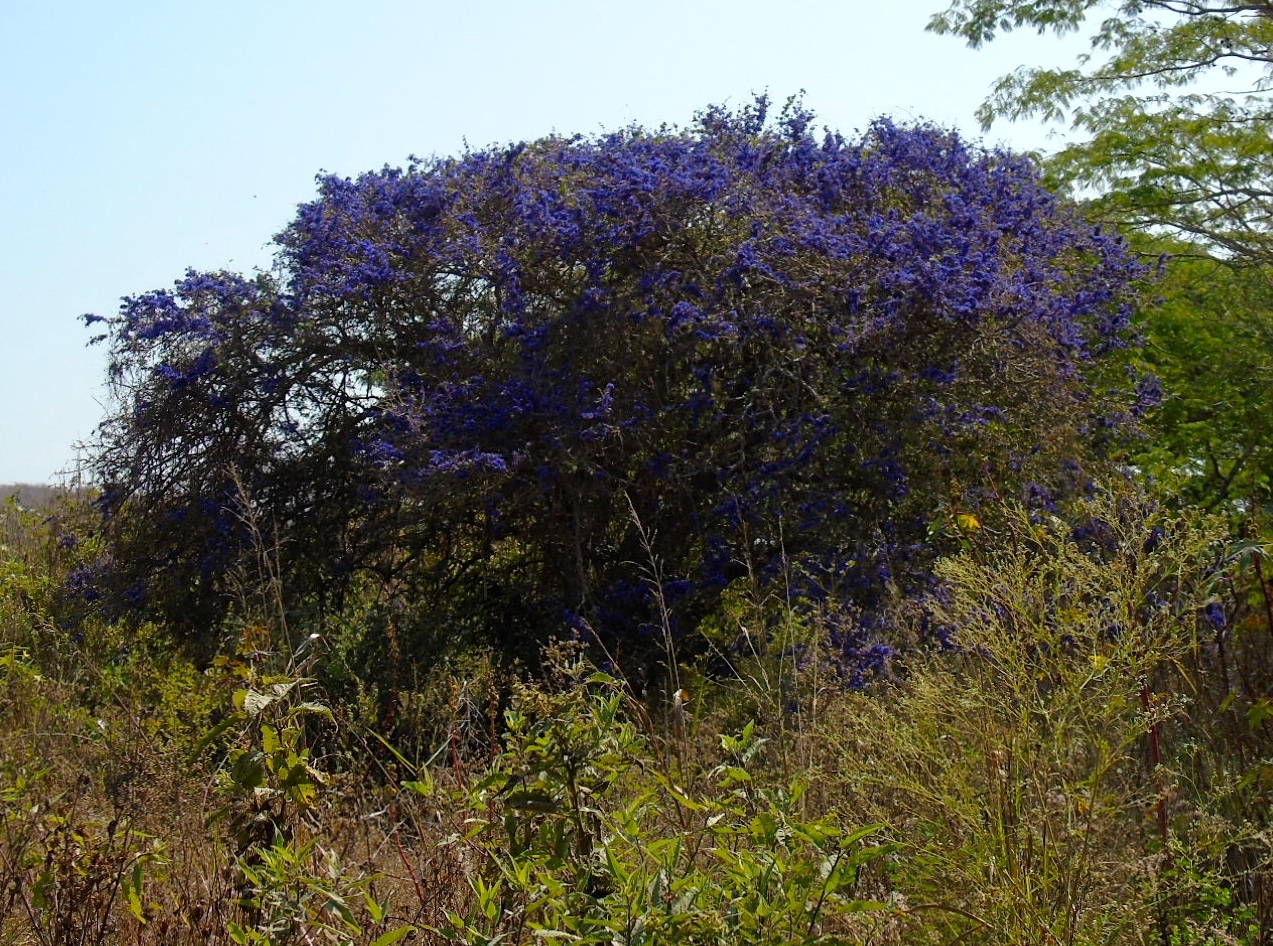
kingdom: Plantae
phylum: Tracheophyta
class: Magnoliopsida
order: Zygophyllales
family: Zygophyllaceae
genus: Guaiacum
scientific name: Guaiacum coulteri
